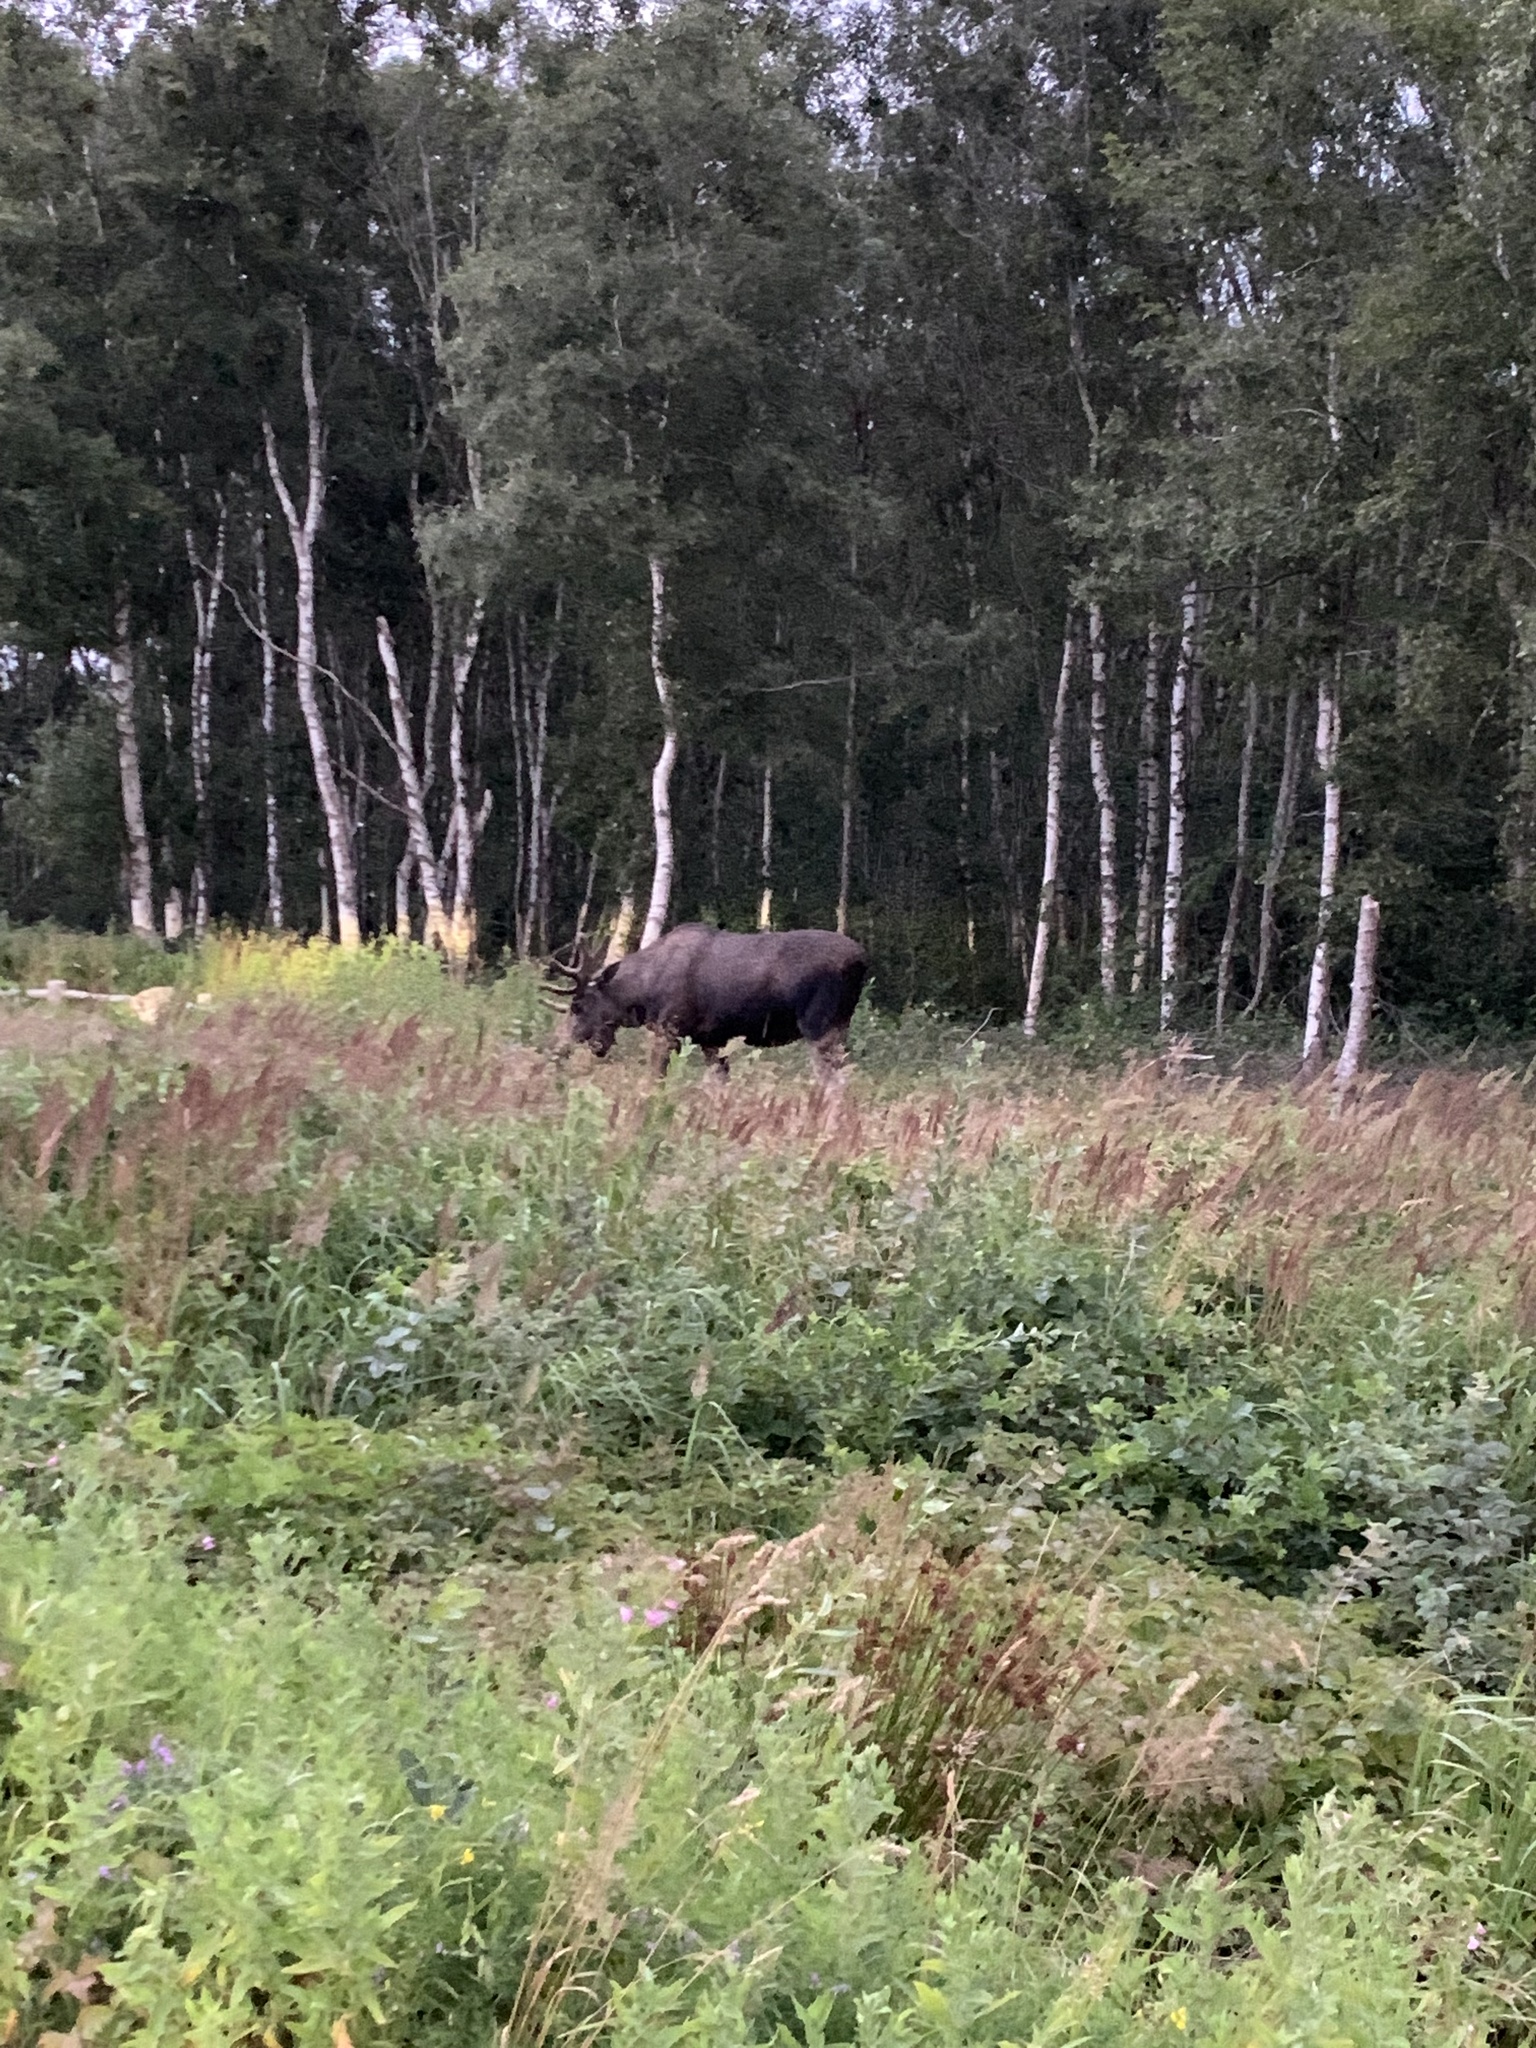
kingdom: Animalia
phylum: Chordata
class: Mammalia
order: Artiodactyla
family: Cervidae
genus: Alces
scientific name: Alces alces
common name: Moose
